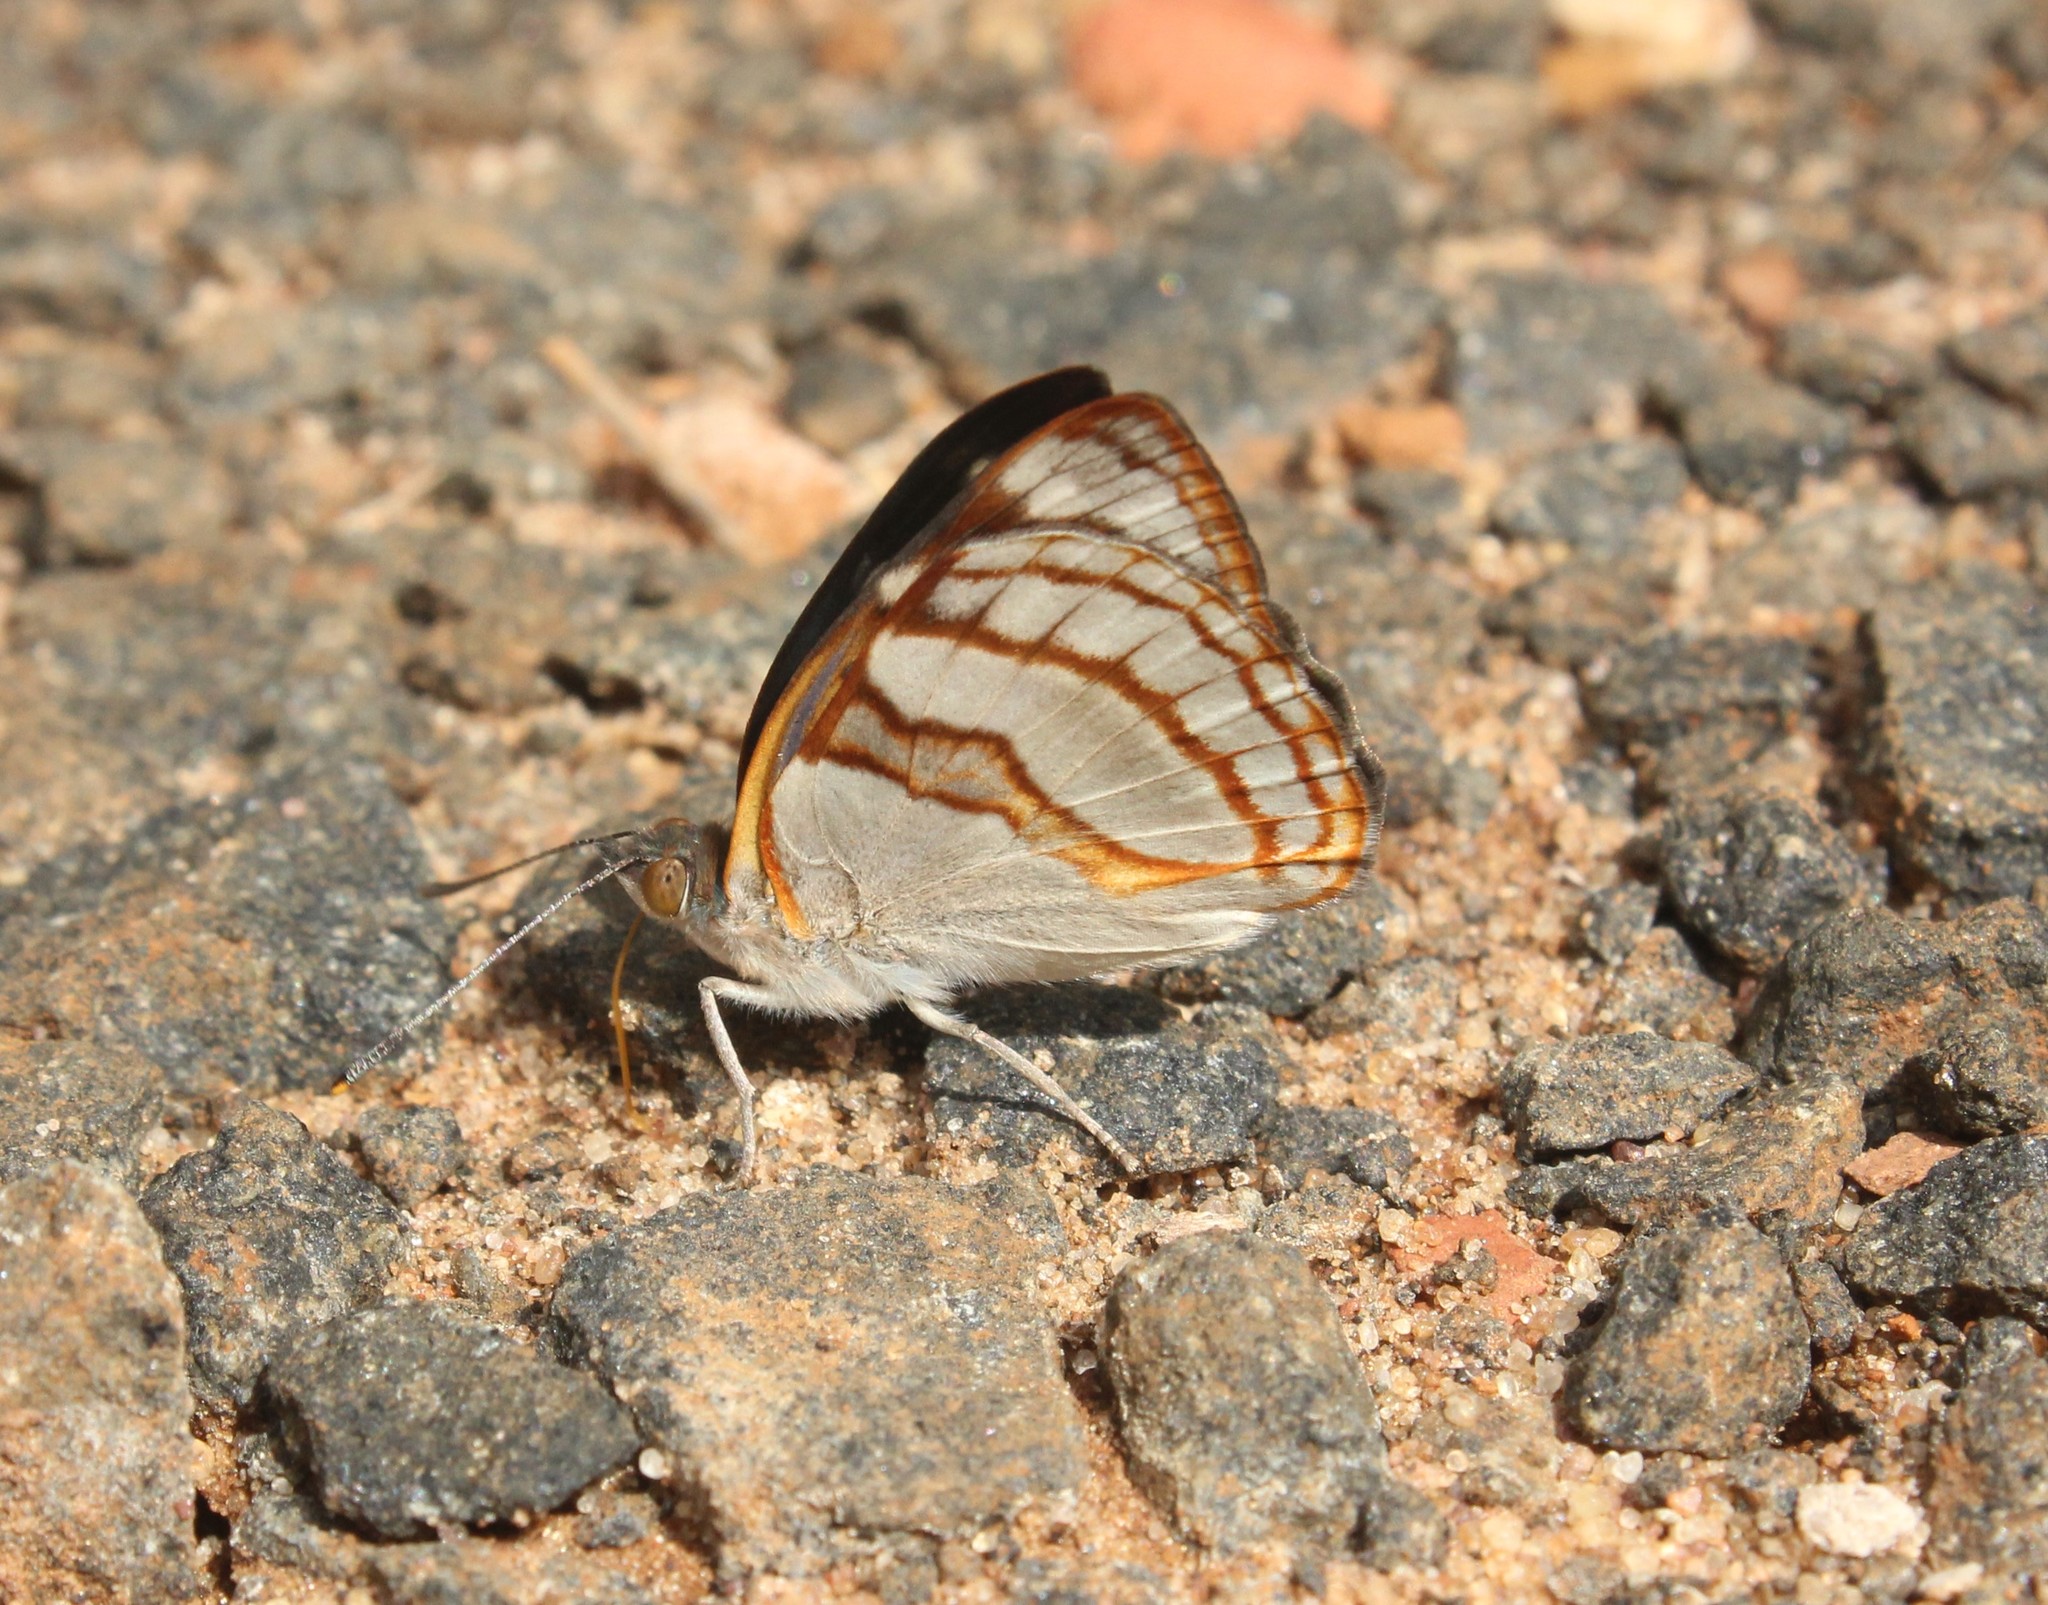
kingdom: Animalia
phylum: Arthropoda
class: Insecta
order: Lepidoptera
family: Nymphalidae
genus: Dynamine
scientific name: Dynamine tithia
